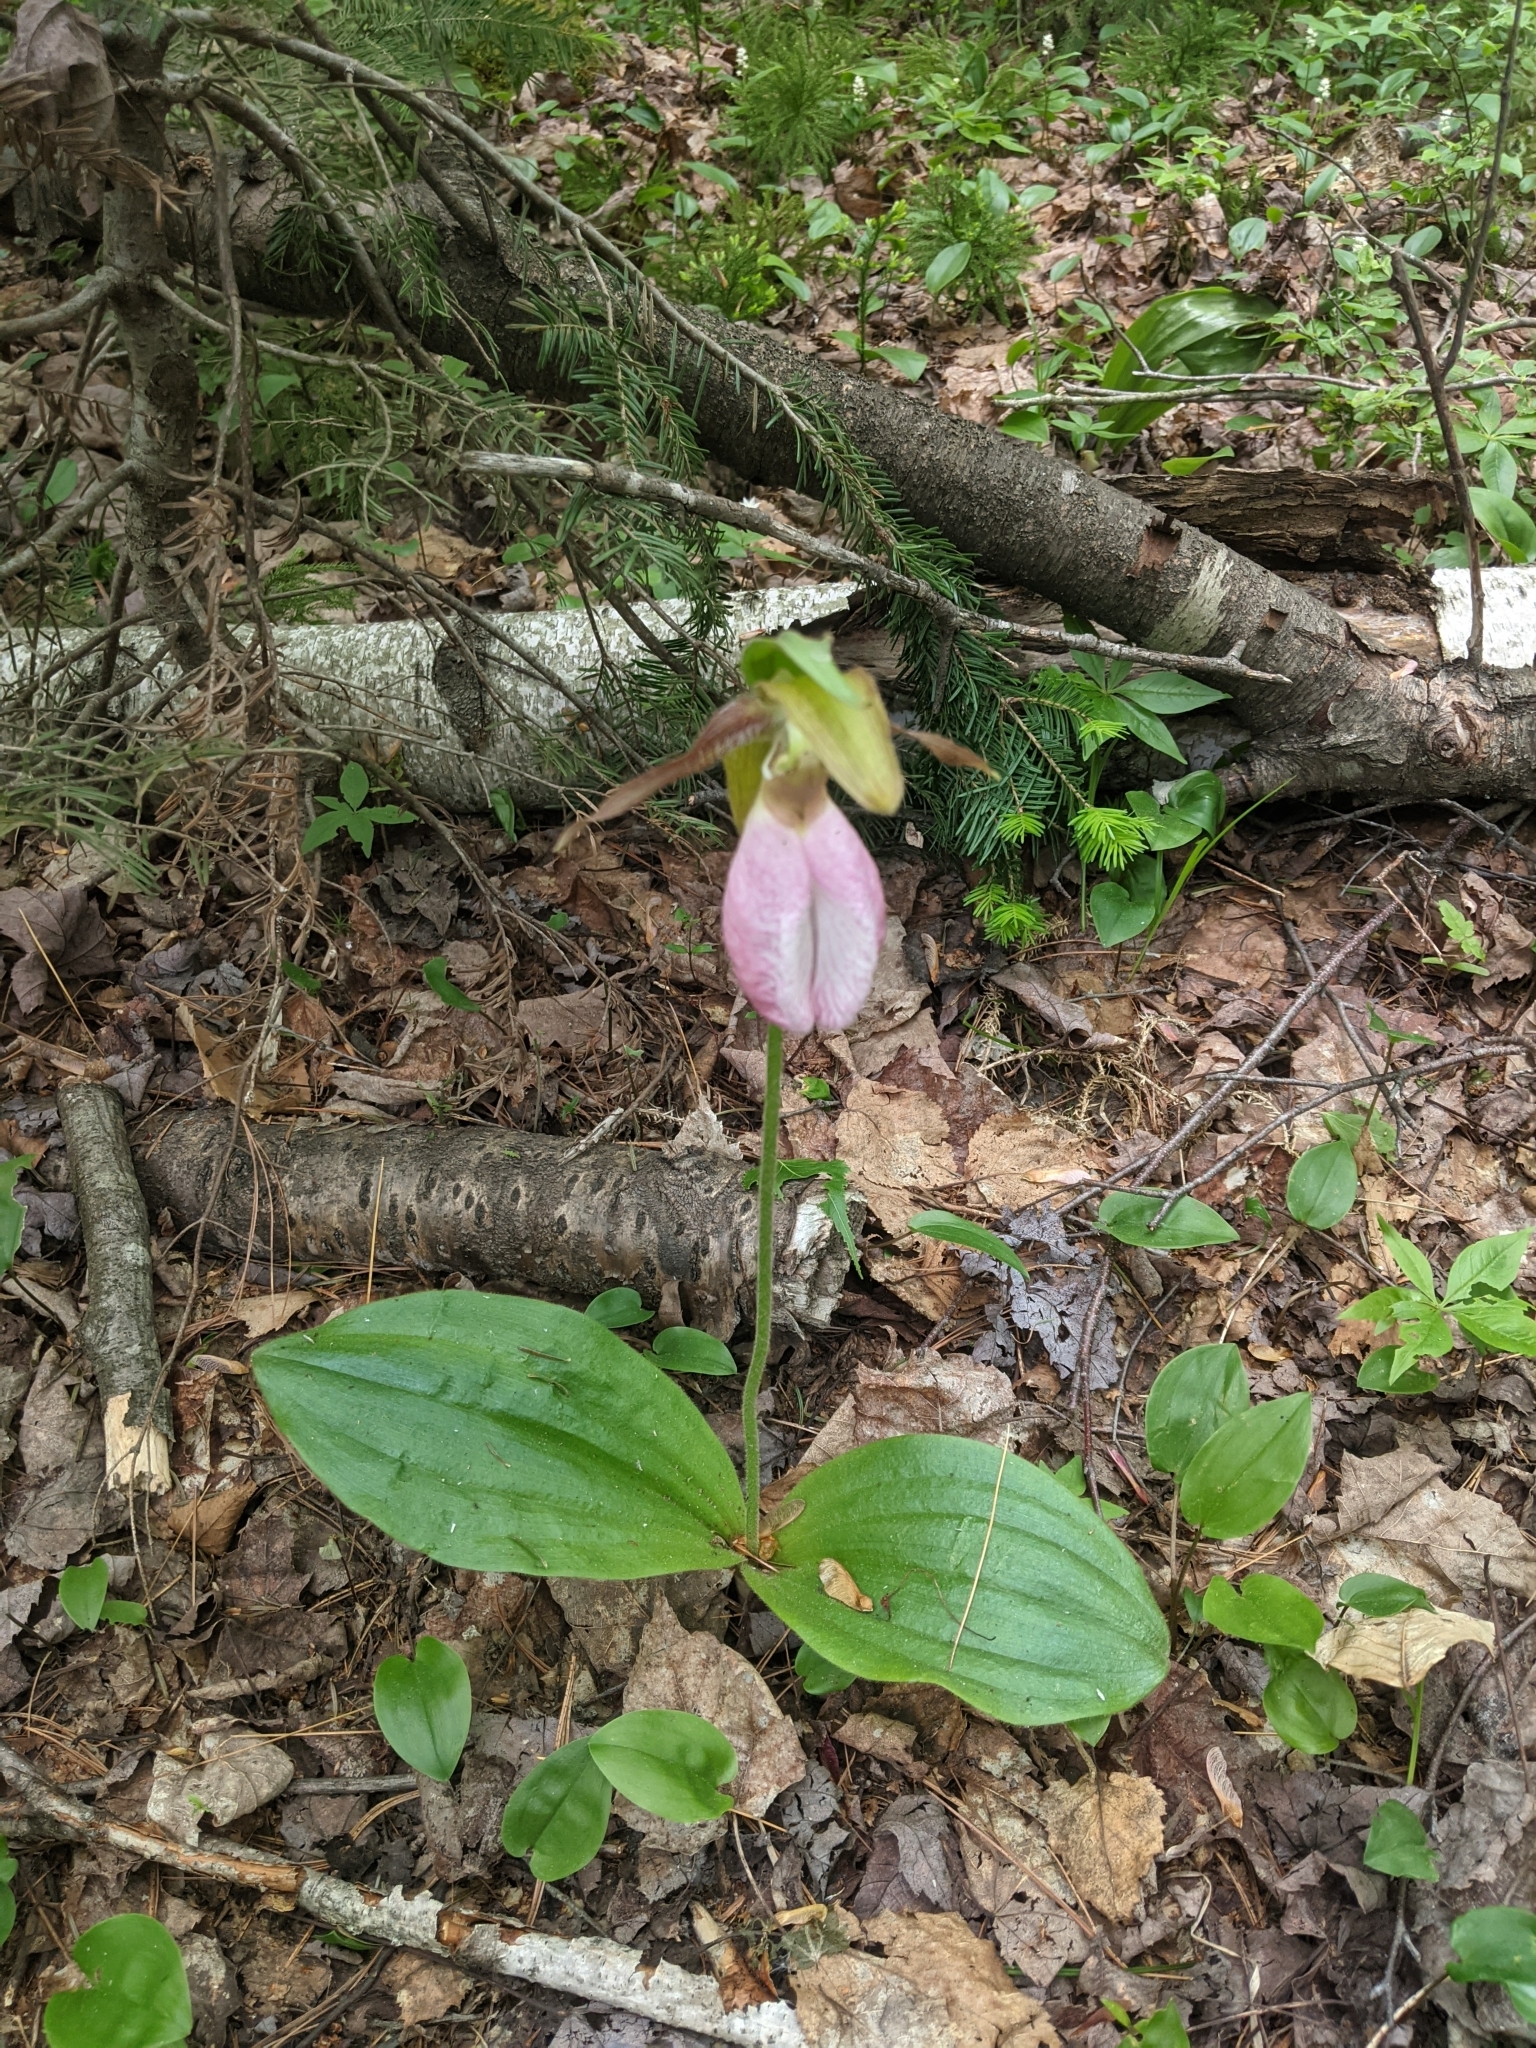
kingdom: Plantae
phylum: Tracheophyta
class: Liliopsida
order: Asparagales
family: Orchidaceae
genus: Cypripedium
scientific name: Cypripedium acaule
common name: Pink lady's-slipper
